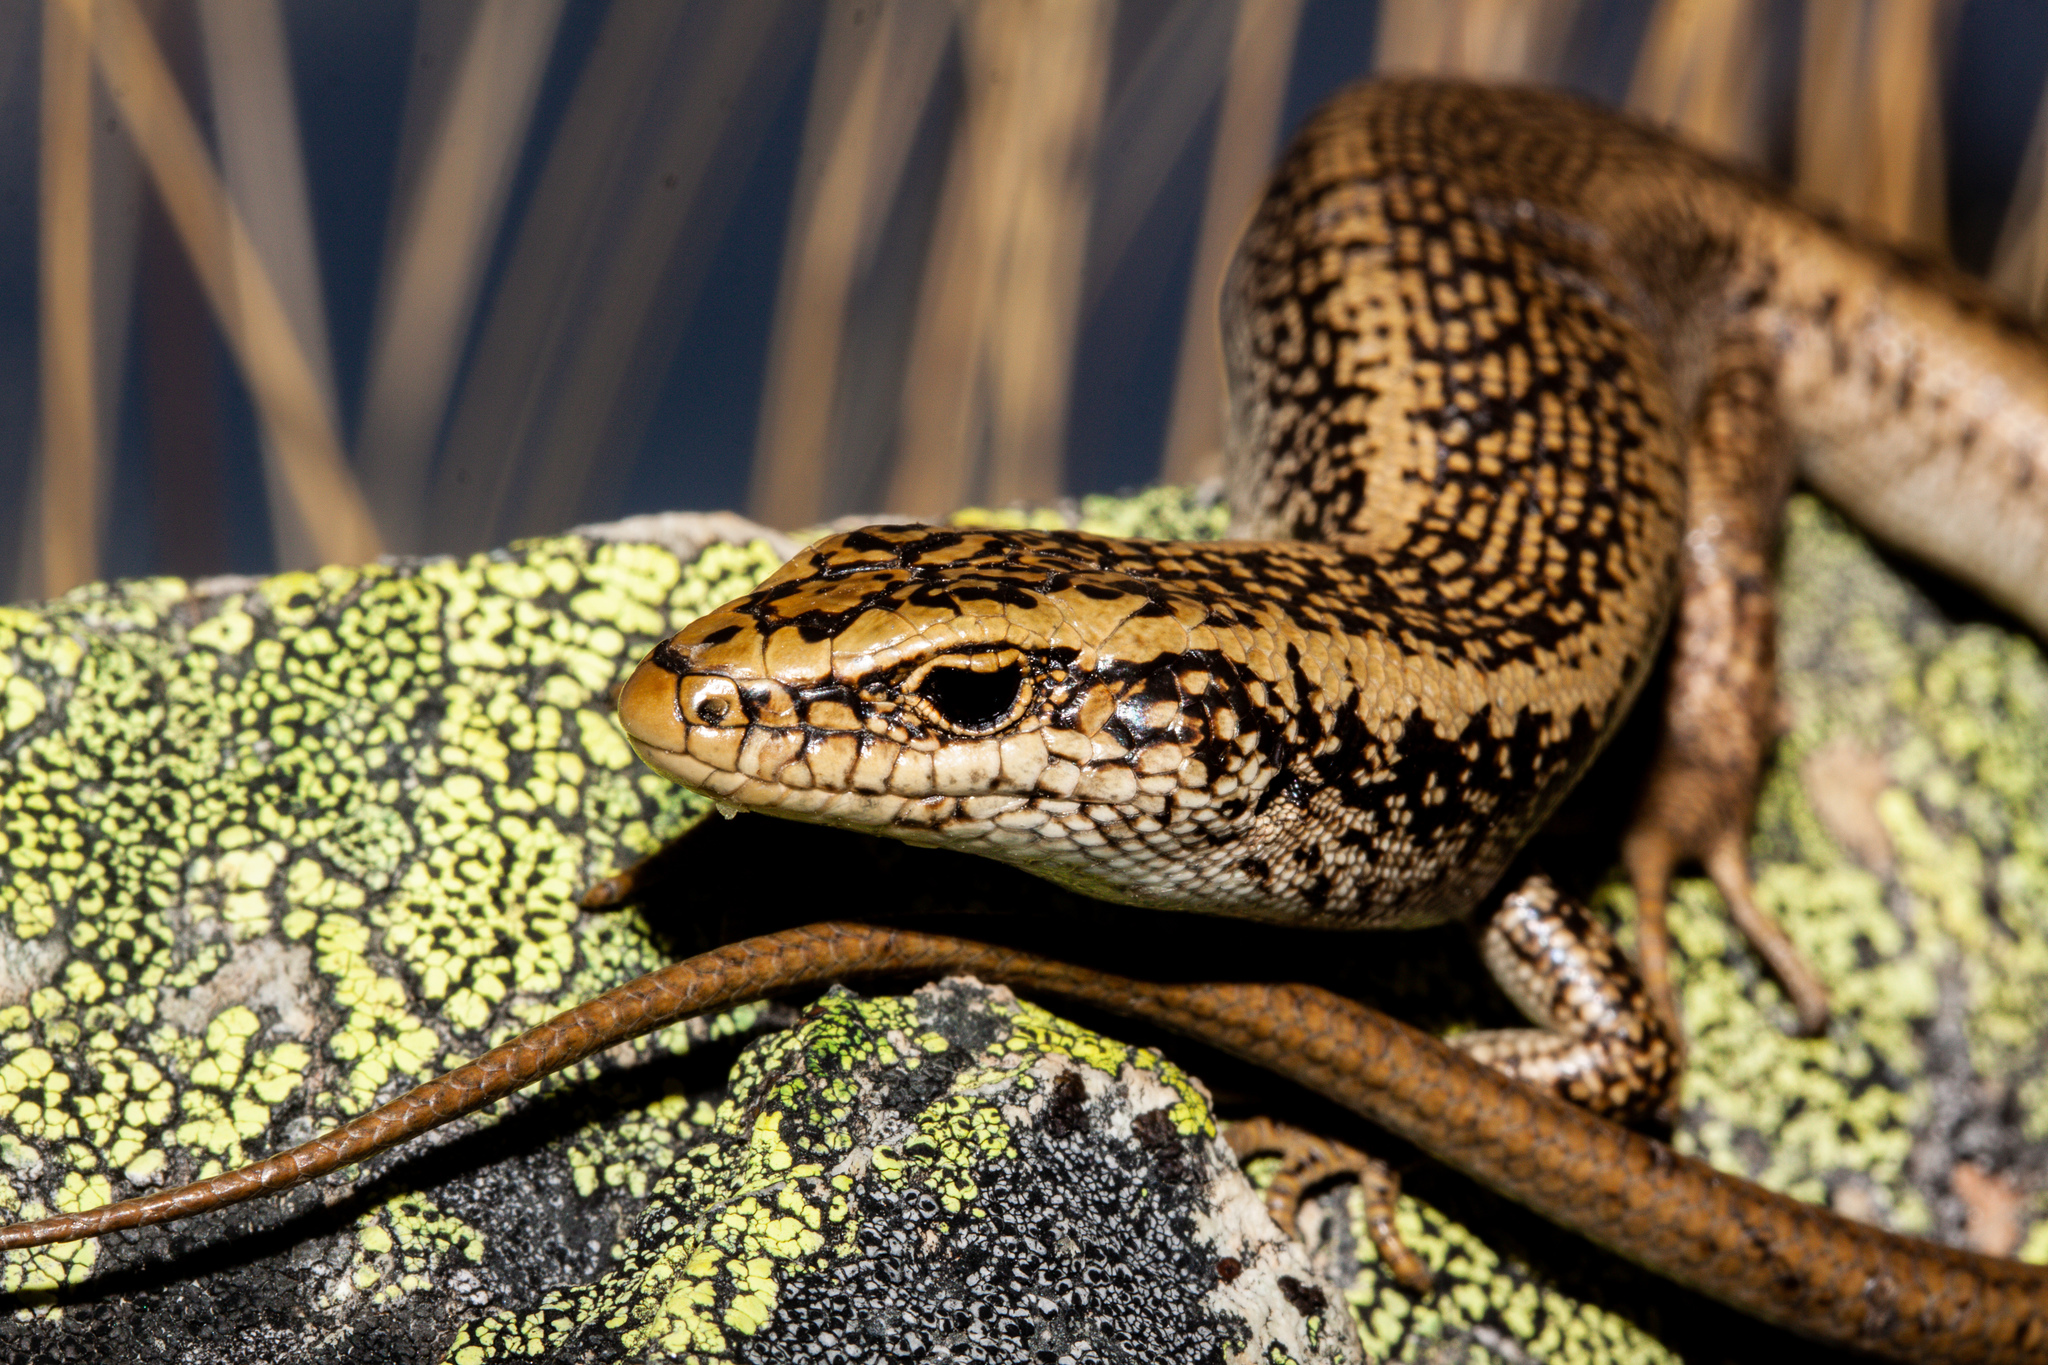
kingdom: Animalia
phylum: Chordata
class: Squamata
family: Scincidae
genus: Oligosoma
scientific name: Oligosoma waimatense
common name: Scree skink
